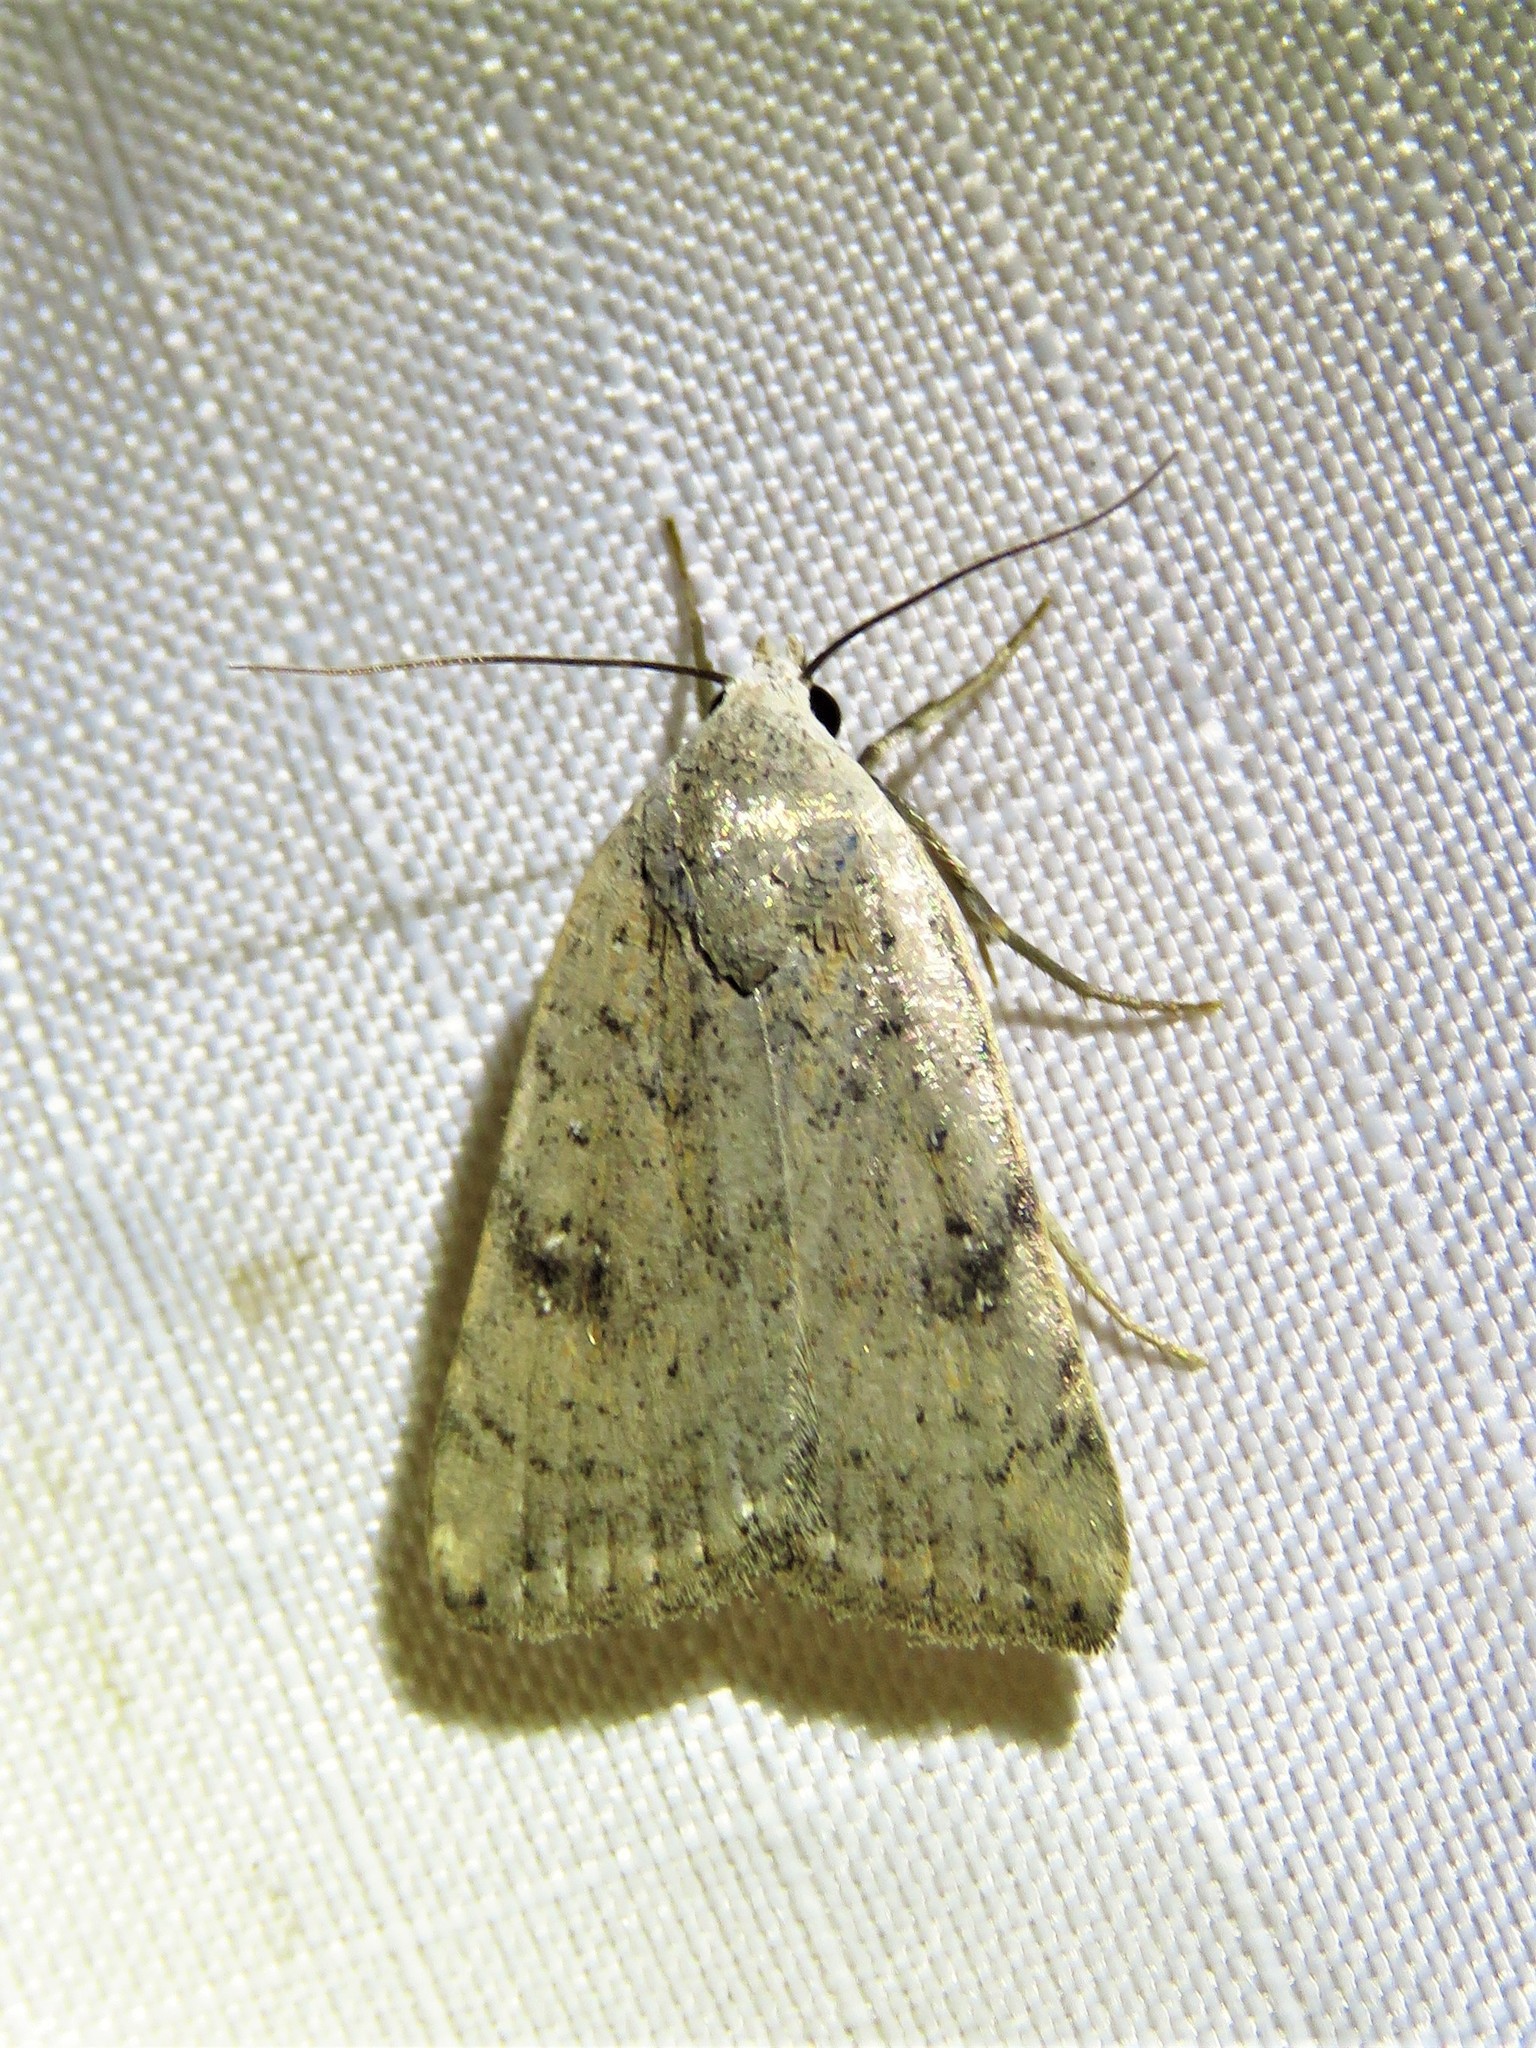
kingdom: Animalia
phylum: Arthropoda
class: Insecta
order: Lepidoptera
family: Noctuidae
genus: Micrathetis
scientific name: Micrathetis triplex
